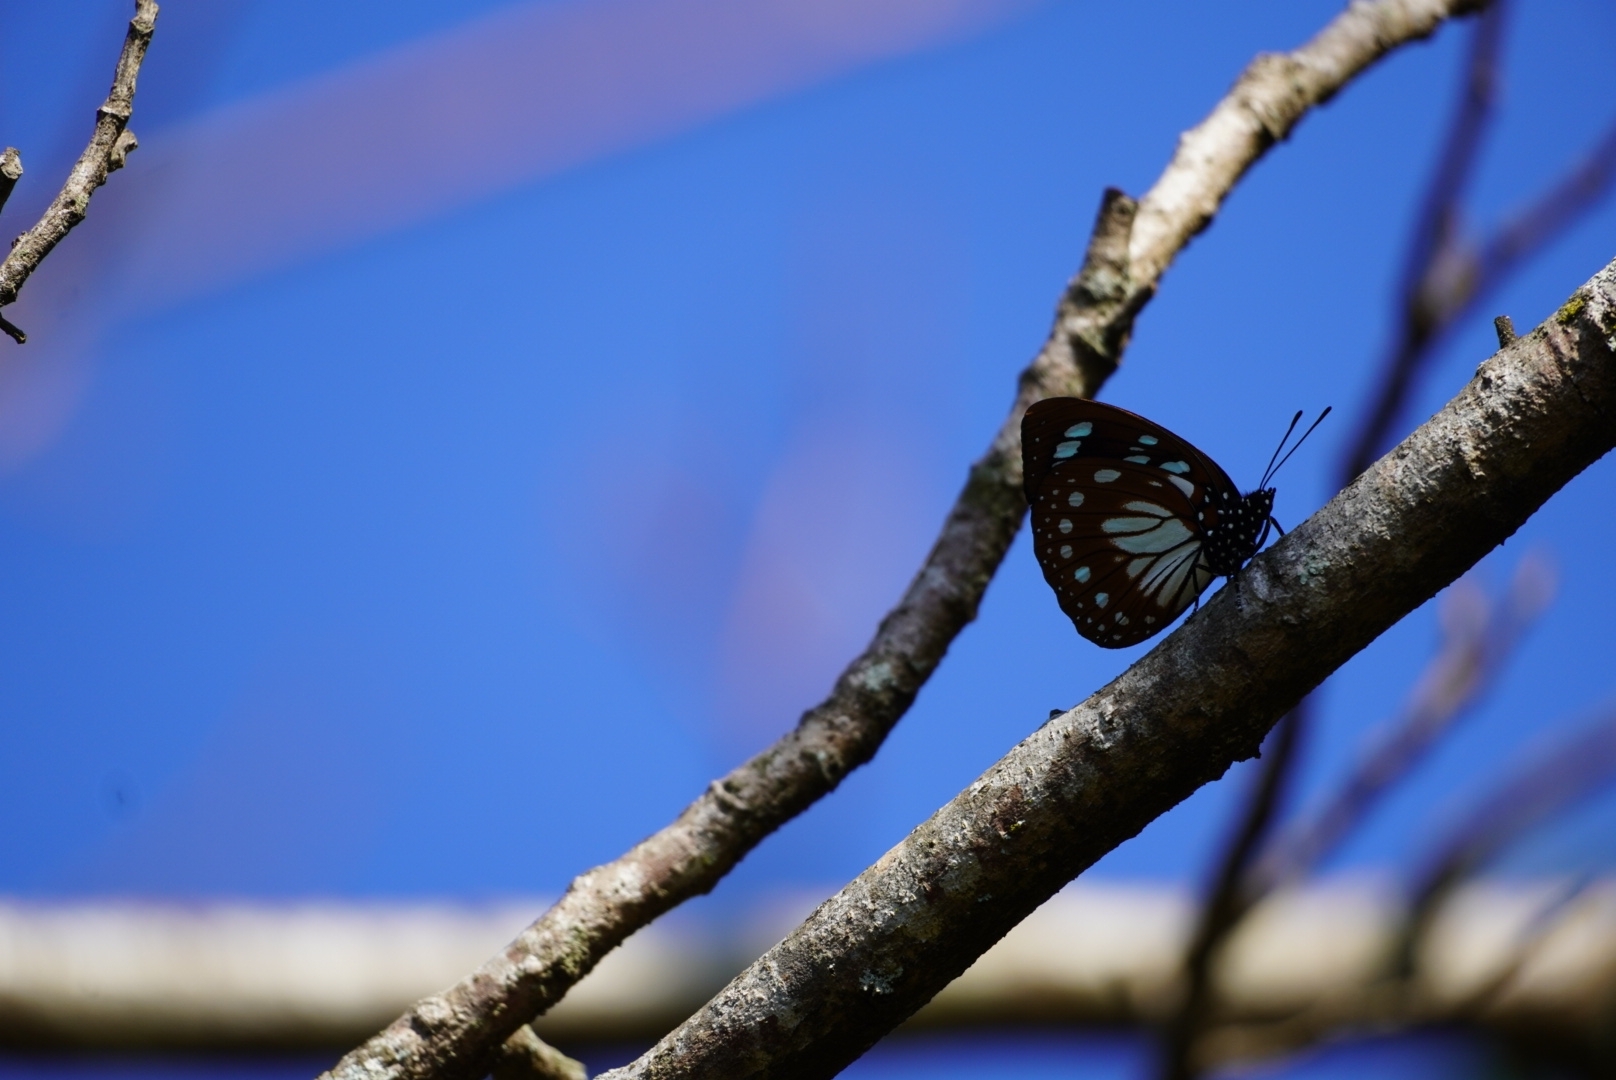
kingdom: Animalia
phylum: Arthropoda
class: Insecta
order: Lepidoptera
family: Nymphalidae
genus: Charaxes
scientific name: Charaxes wakefieldi
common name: Forest queen
